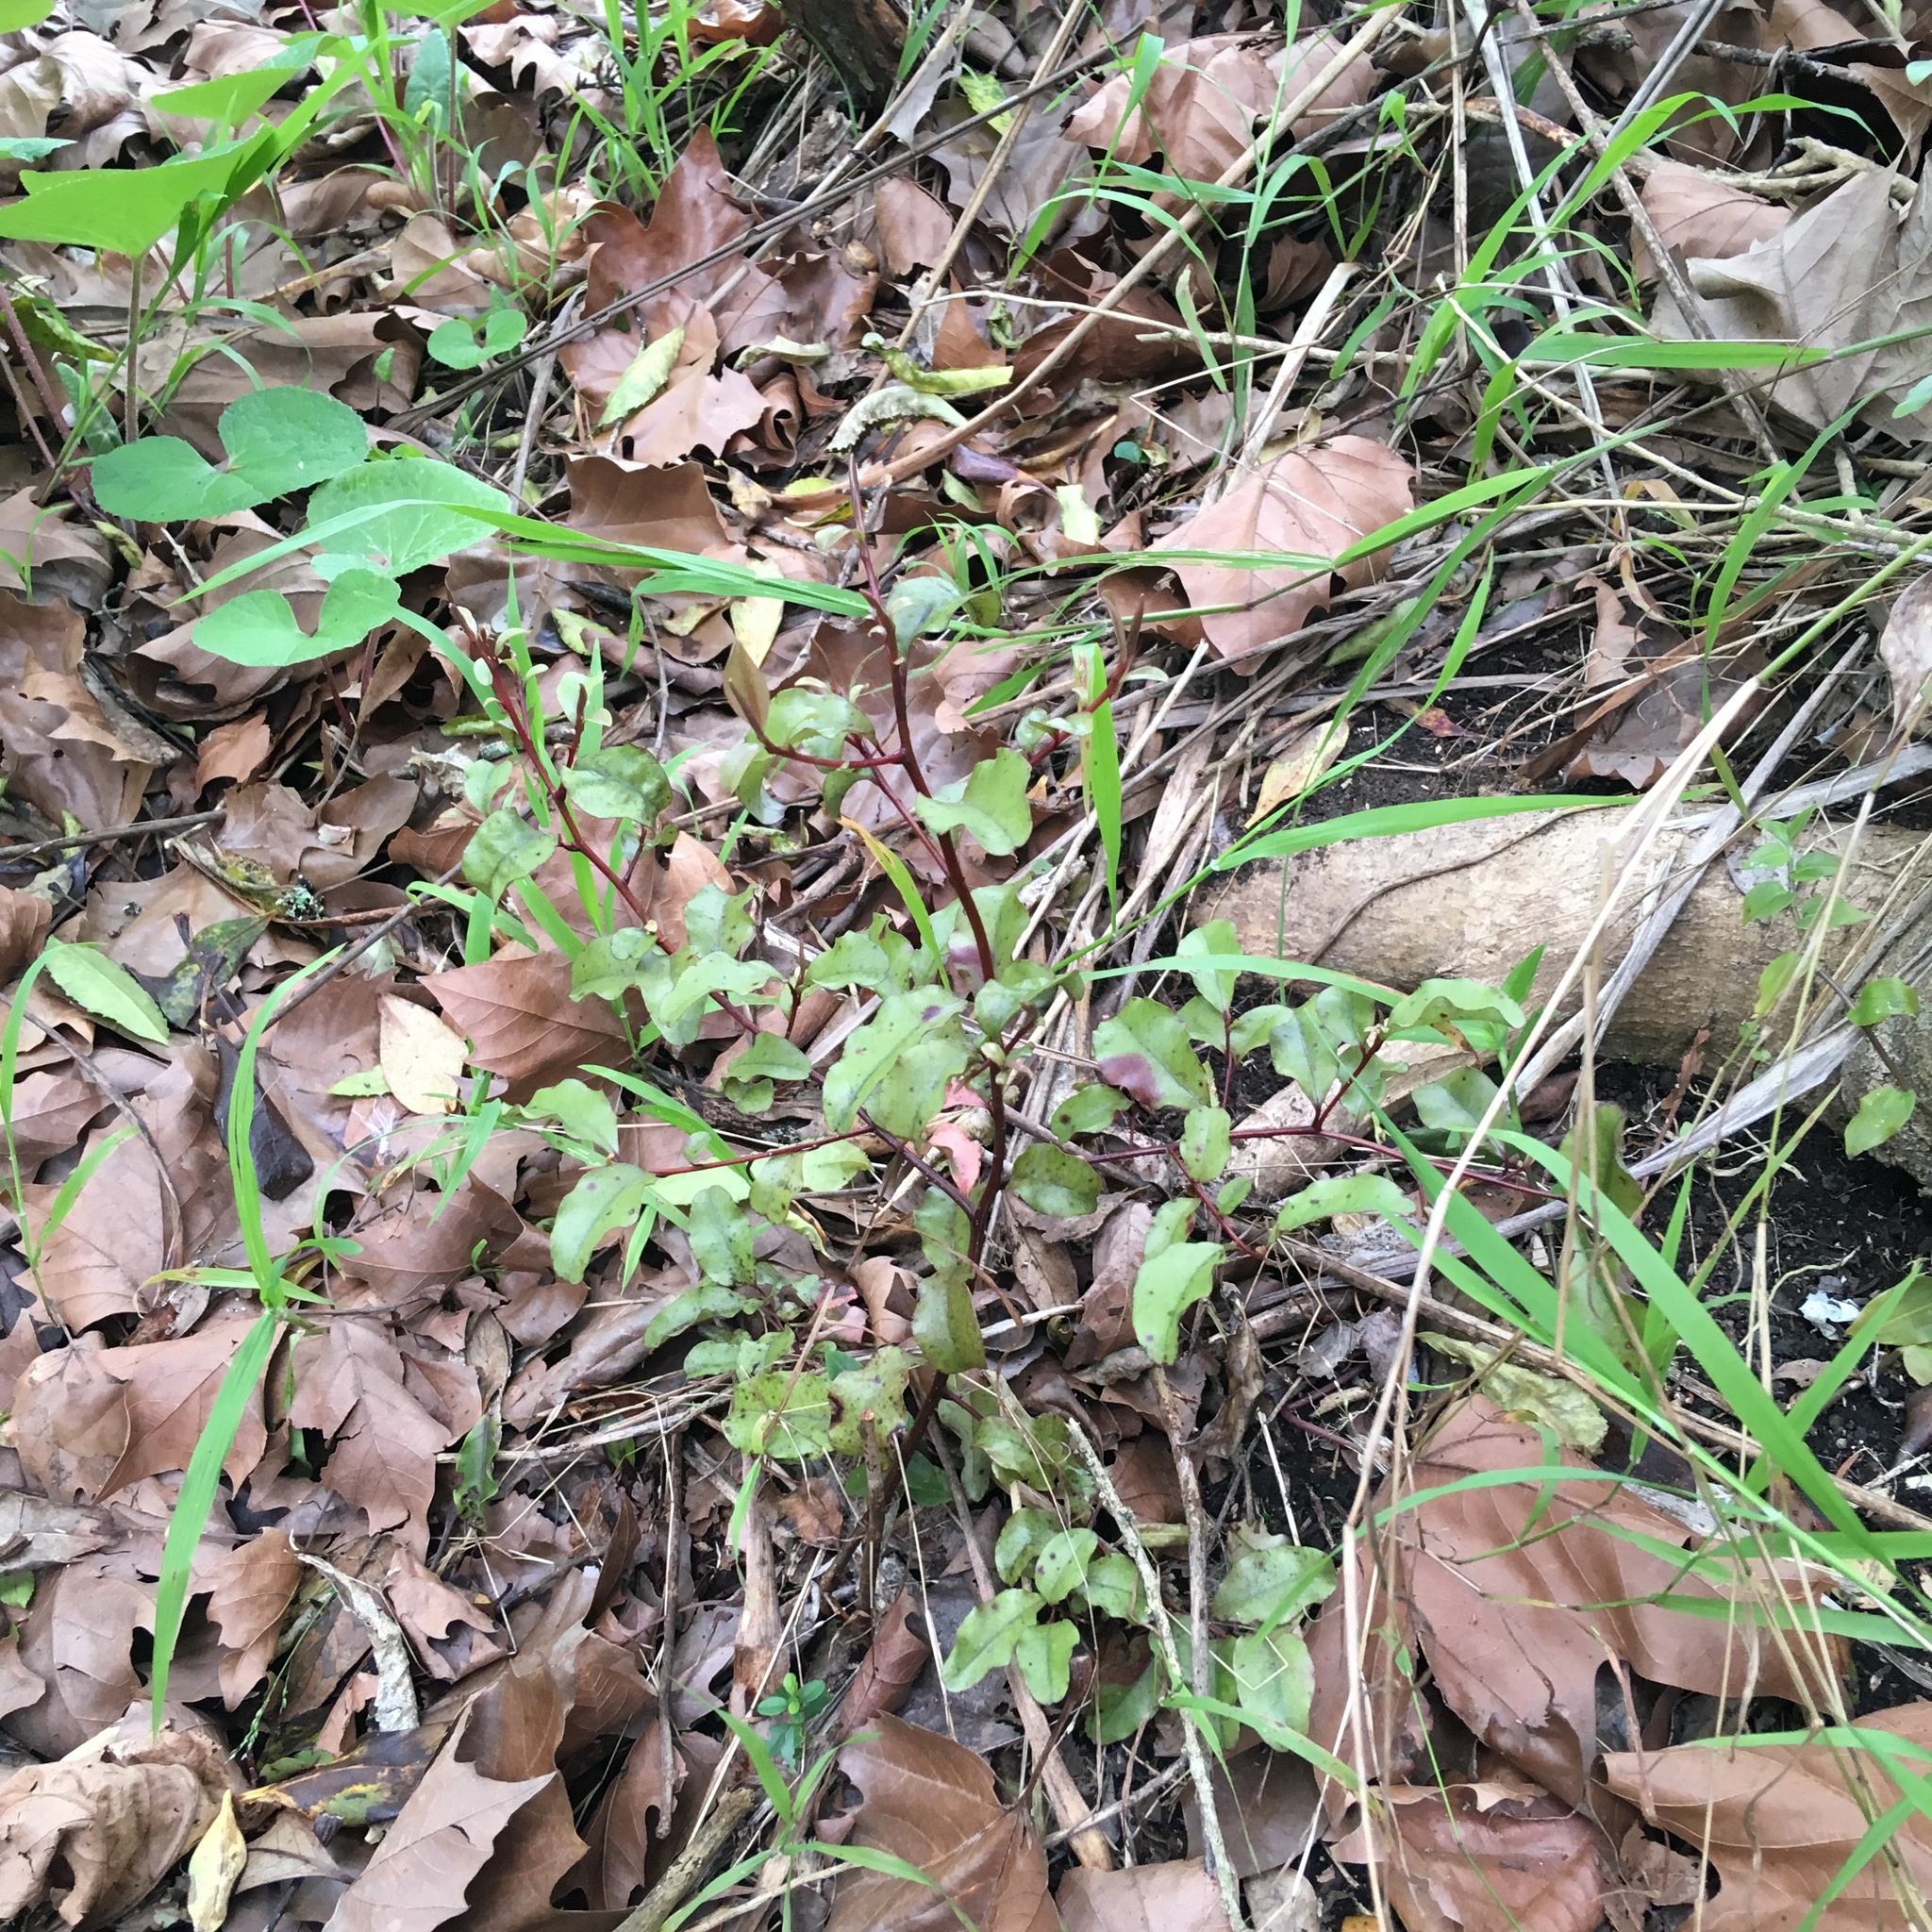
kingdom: Plantae
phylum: Tracheophyta
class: Magnoliopsida
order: Ericales
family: Primulaceae
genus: Myrsine
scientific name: Myrsine australis
